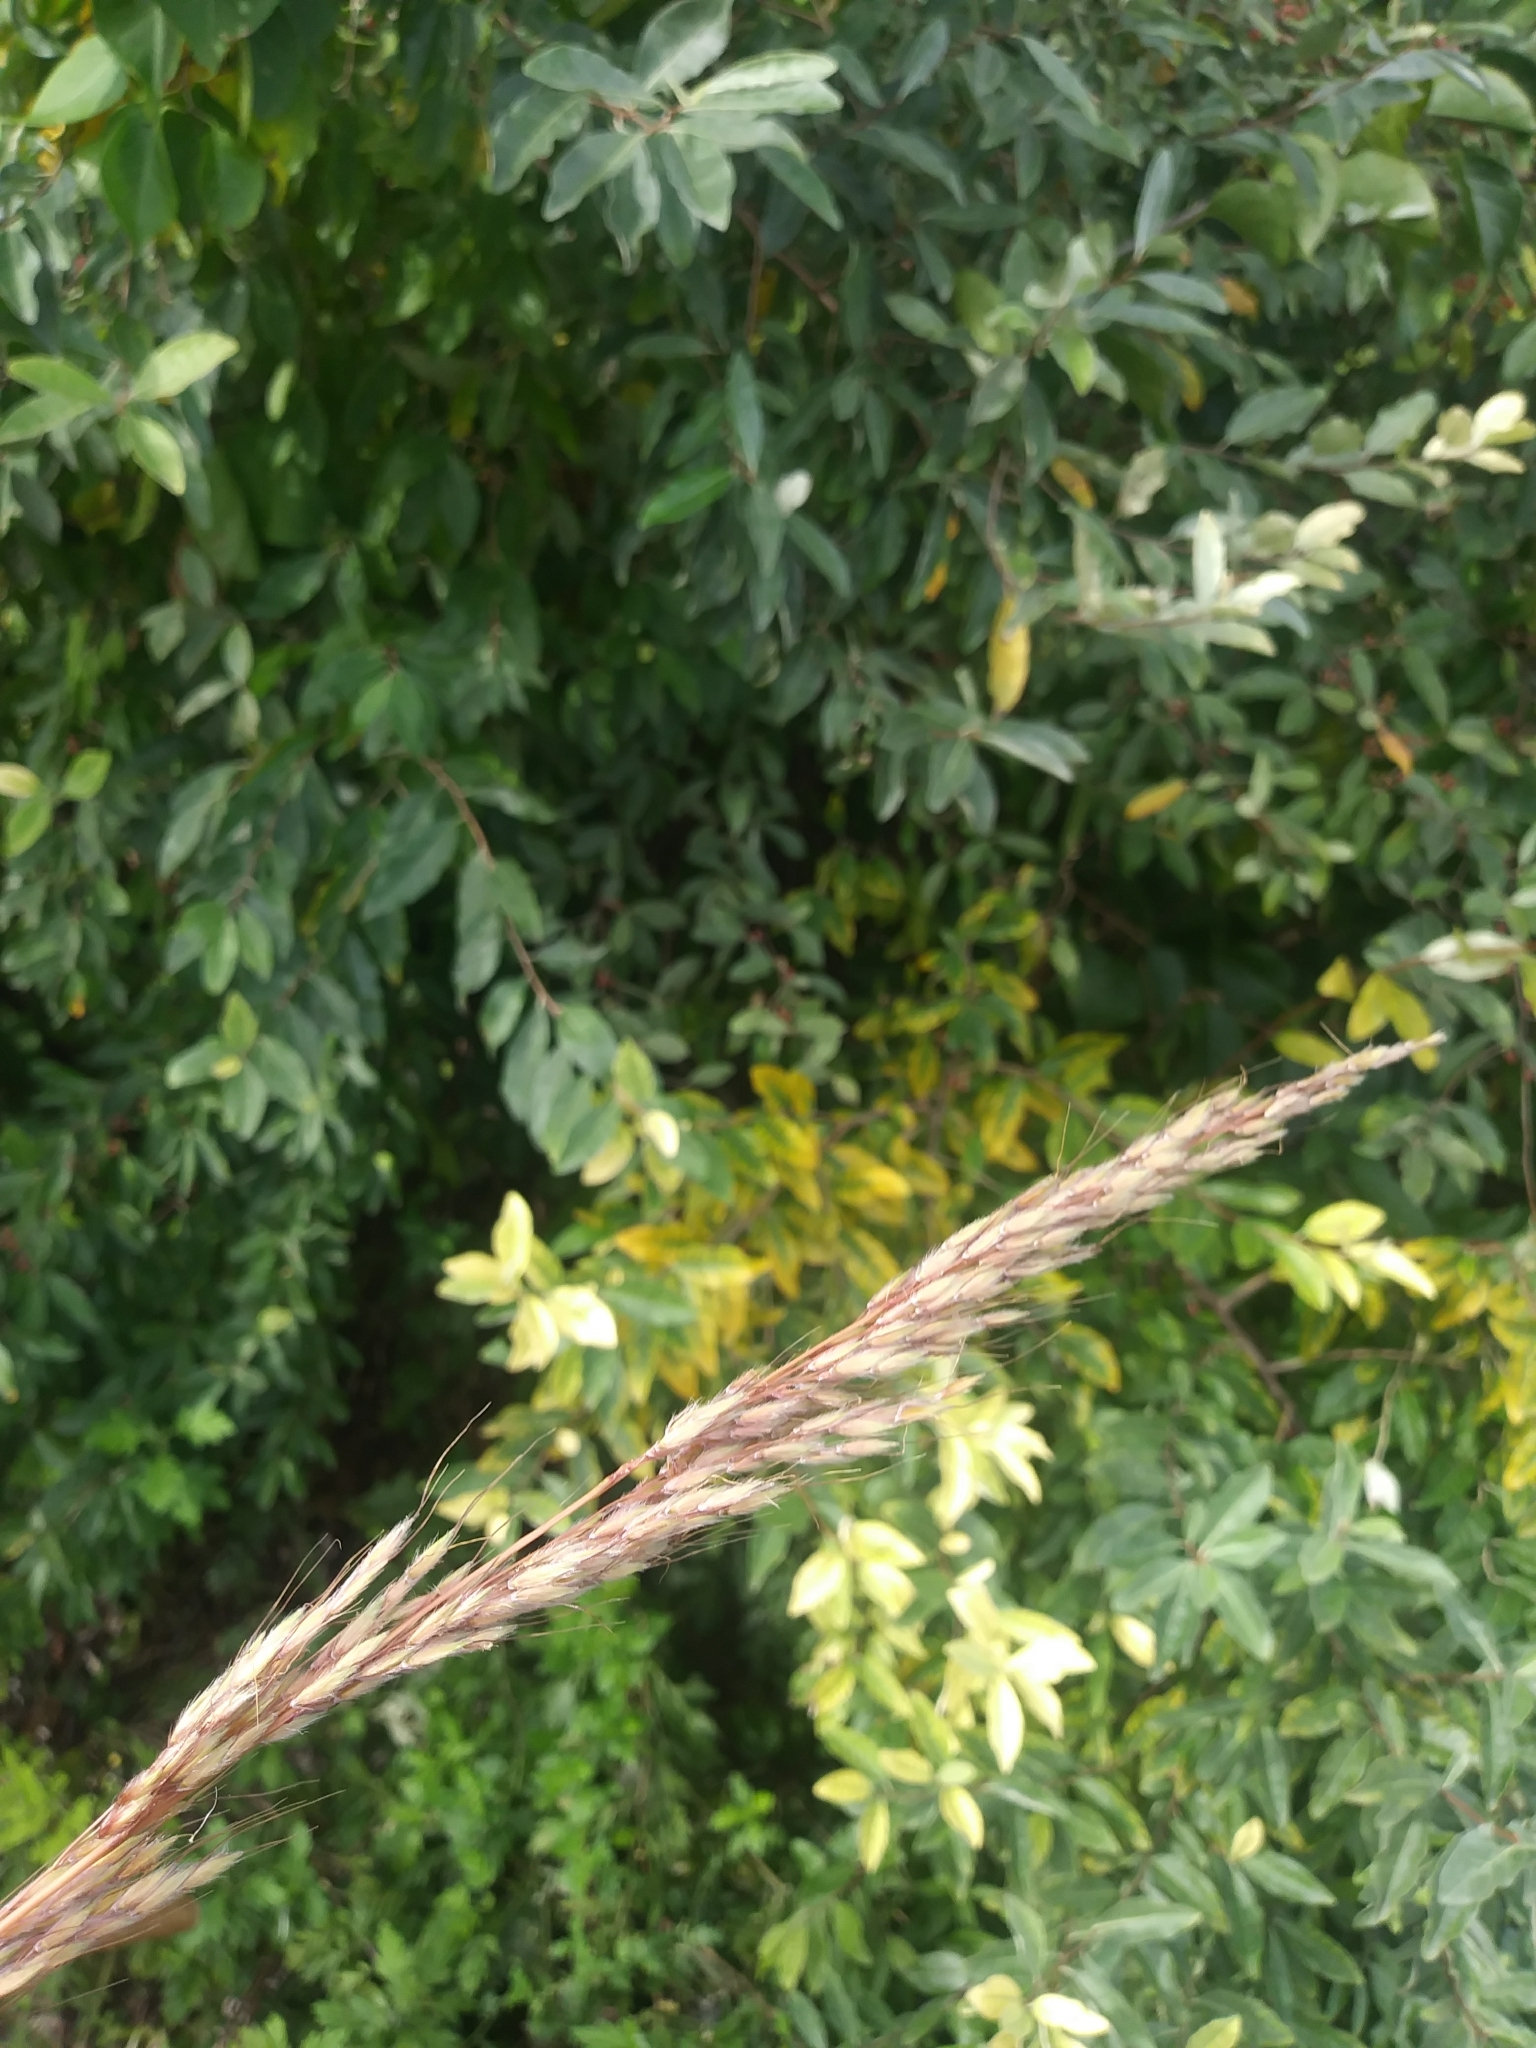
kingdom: Plantae
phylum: Tracheophyta
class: Liliopsida
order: Poales
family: Poaceae
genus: Sorghastrum
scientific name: Sorghastrum nutans
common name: Indian grass
